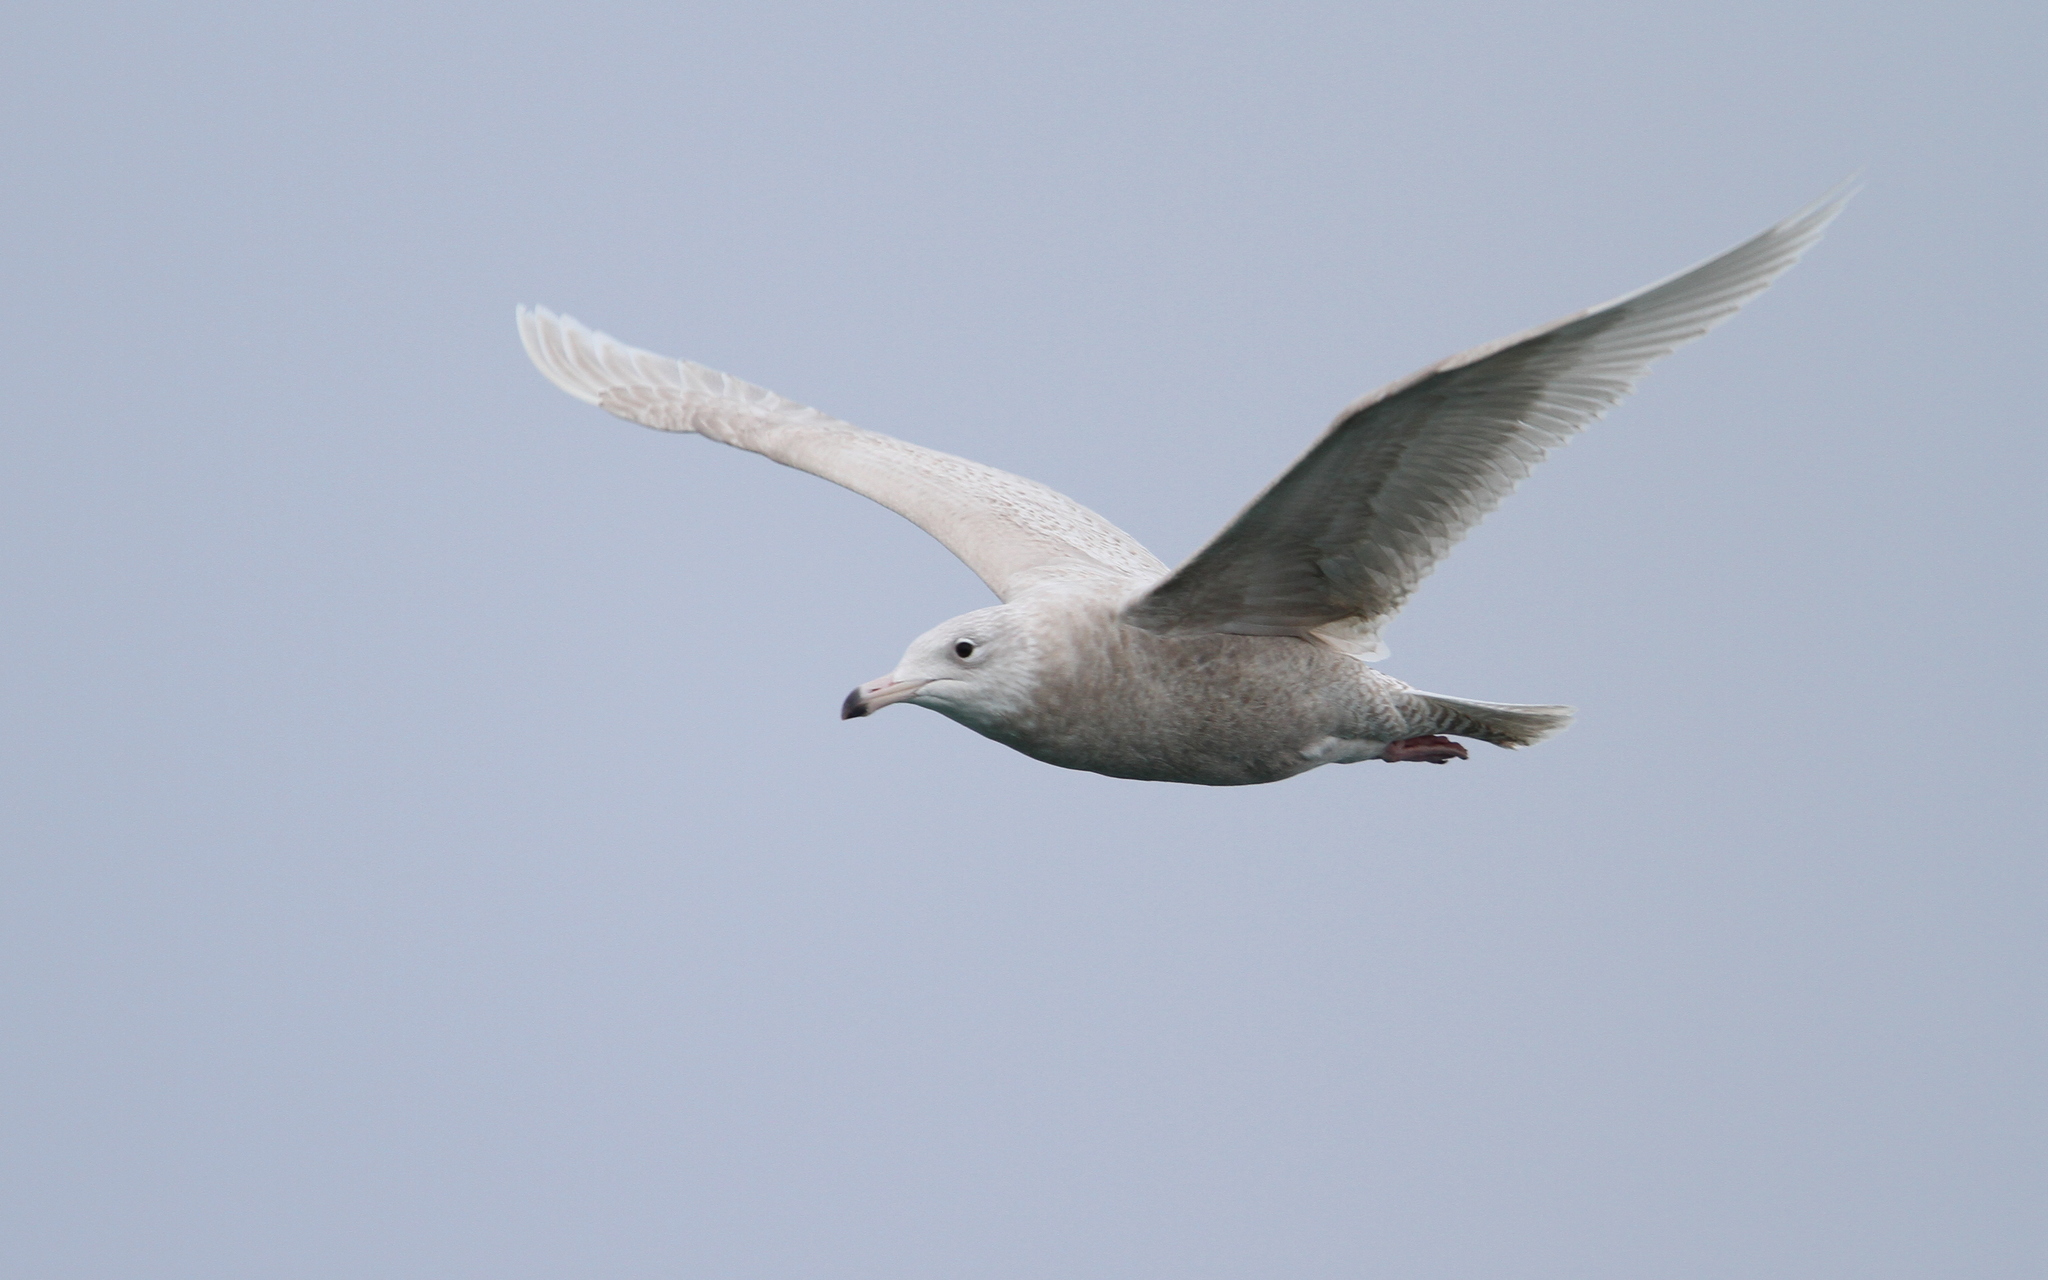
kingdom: Animalia
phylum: Chordata
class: Aves
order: Charadriiformes
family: Laridae
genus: Larus
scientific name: Larus hyperboreus
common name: Glaucous gull
